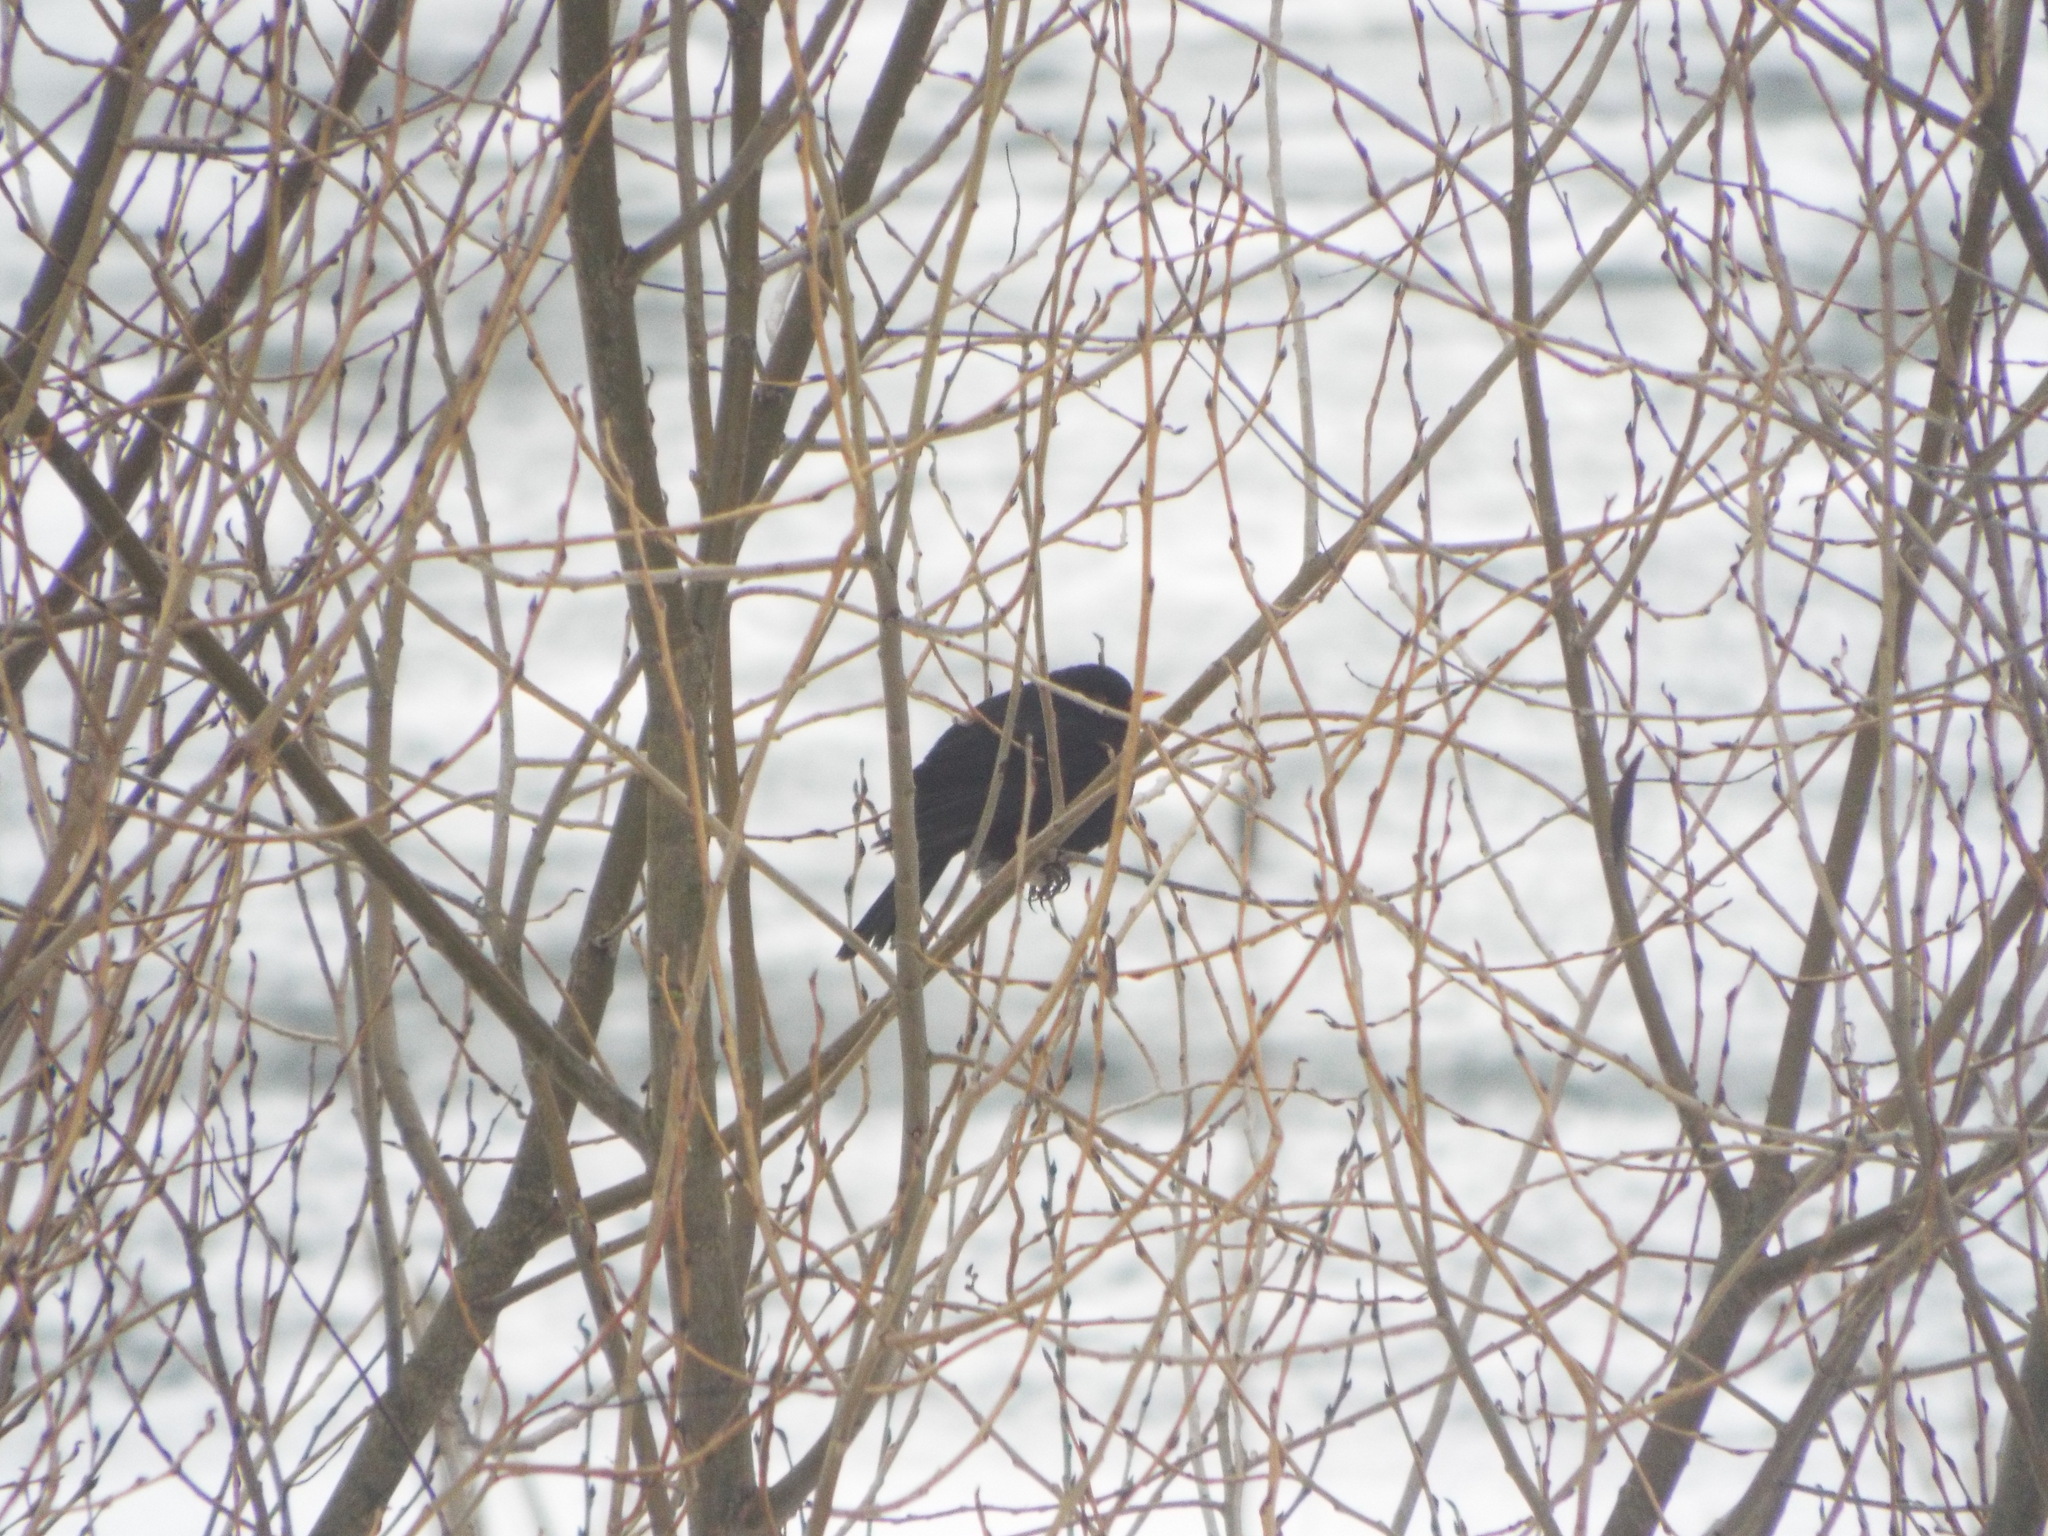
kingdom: Animalia
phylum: Chordata
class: Aves
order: Passeriformes
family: Turdidae
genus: Turdus
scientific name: Turdus merula
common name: Common blackbird
